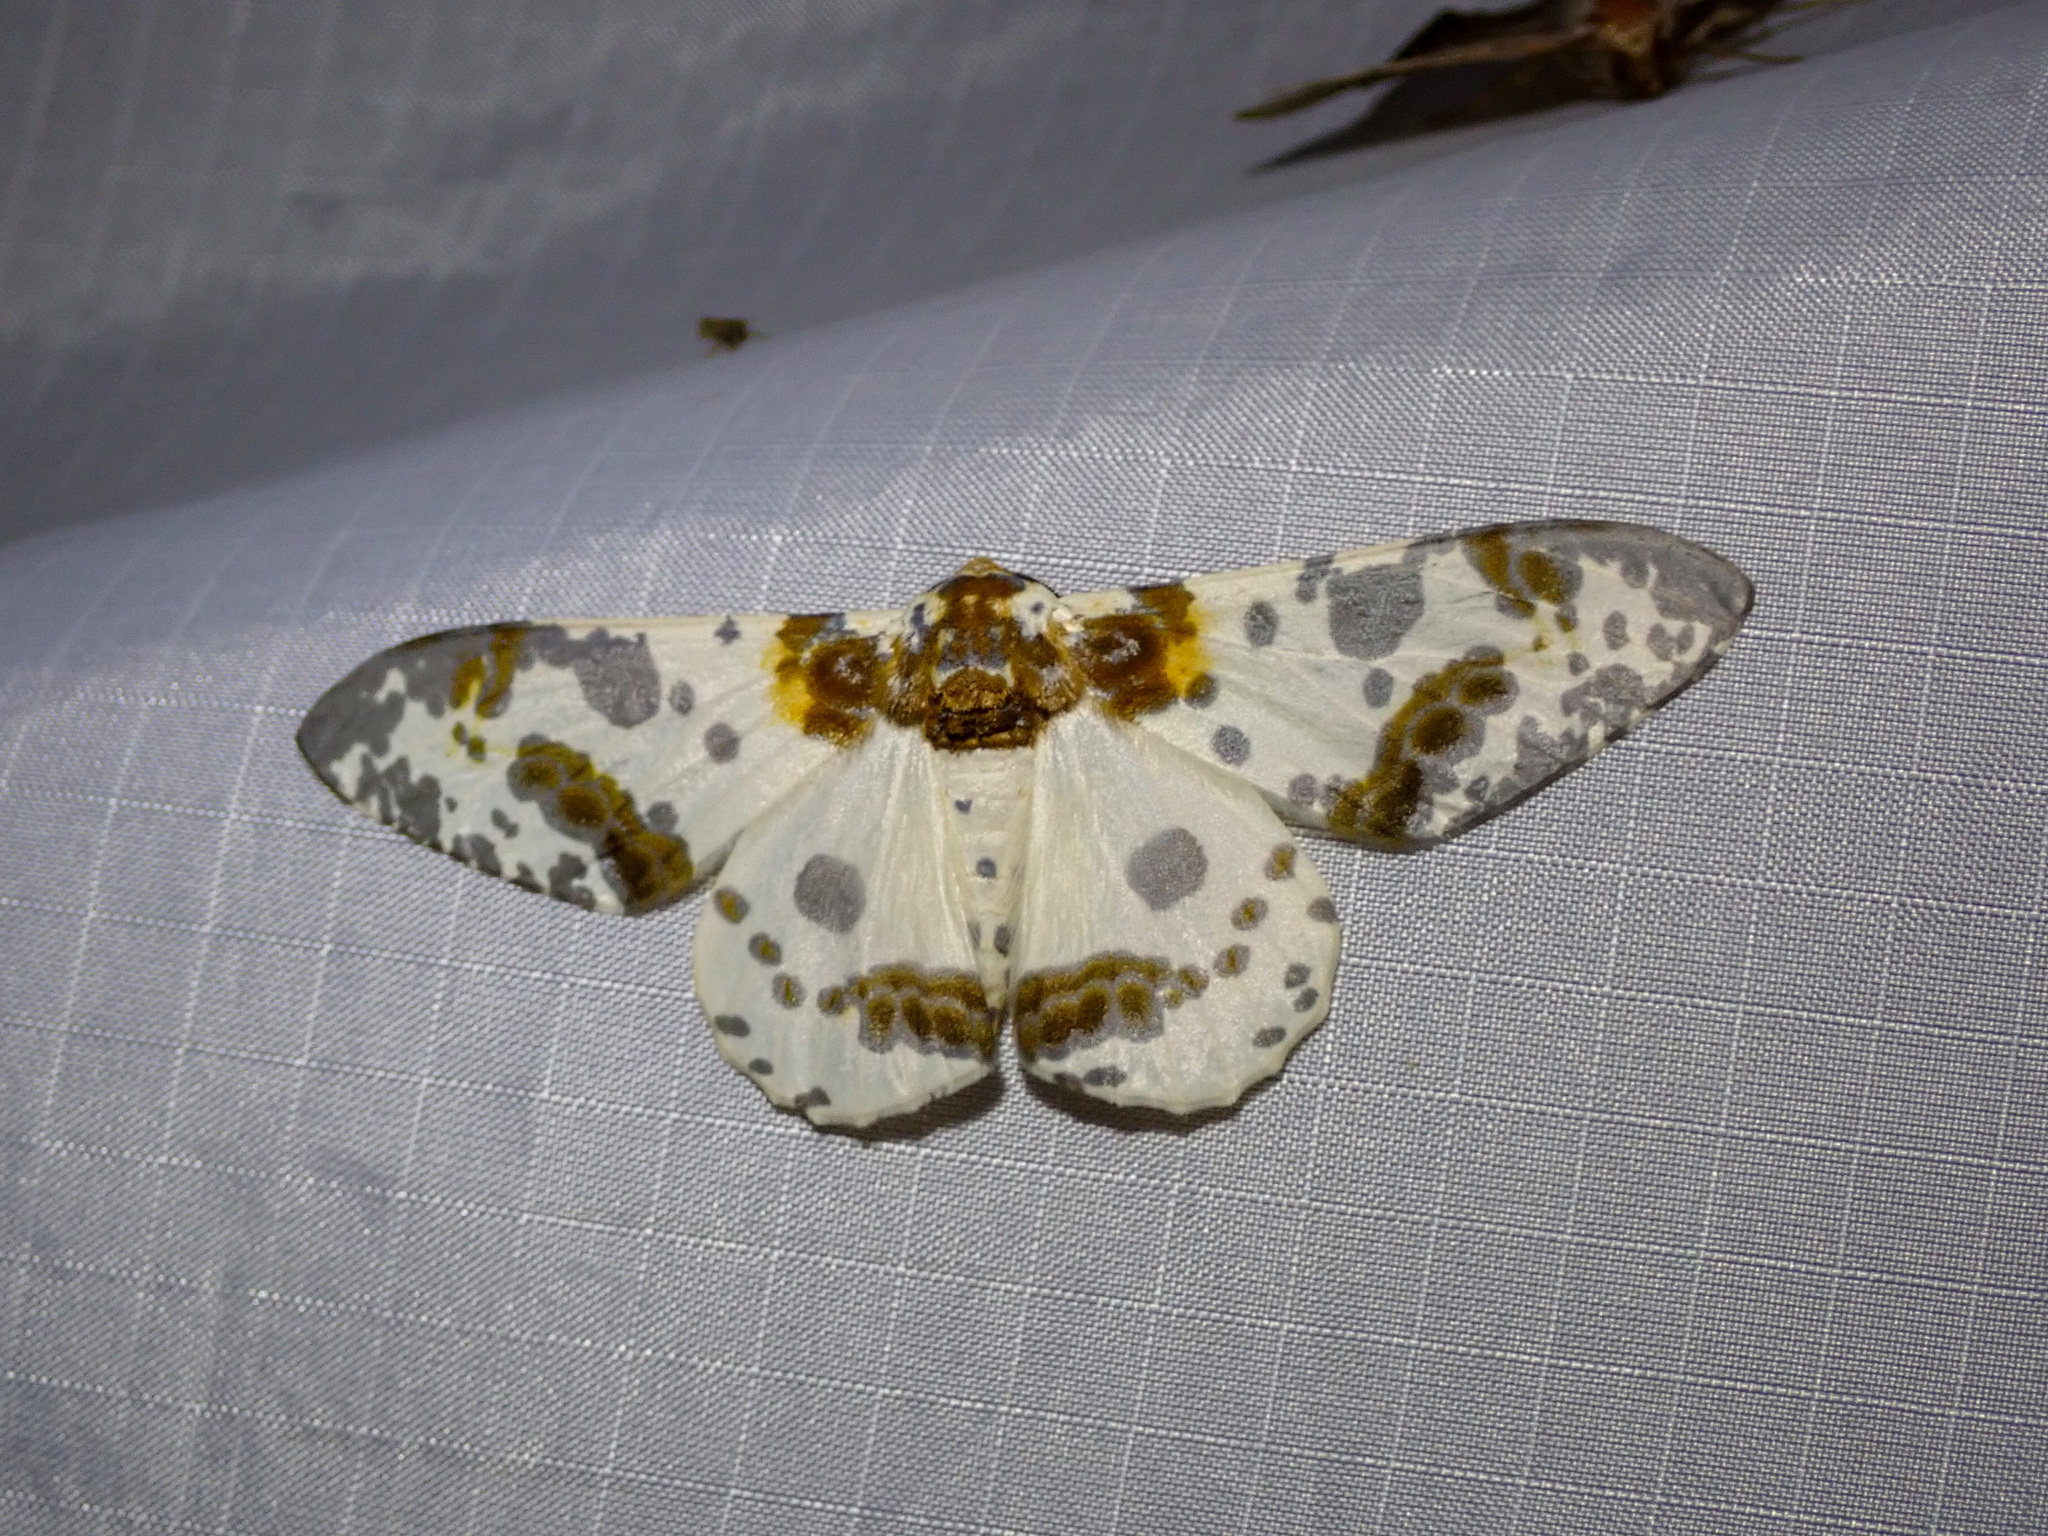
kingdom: Animalia
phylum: Arthropoda
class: Insecta
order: Lepidoptera
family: Geometridae
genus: Biston
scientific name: Biston panterinaria
